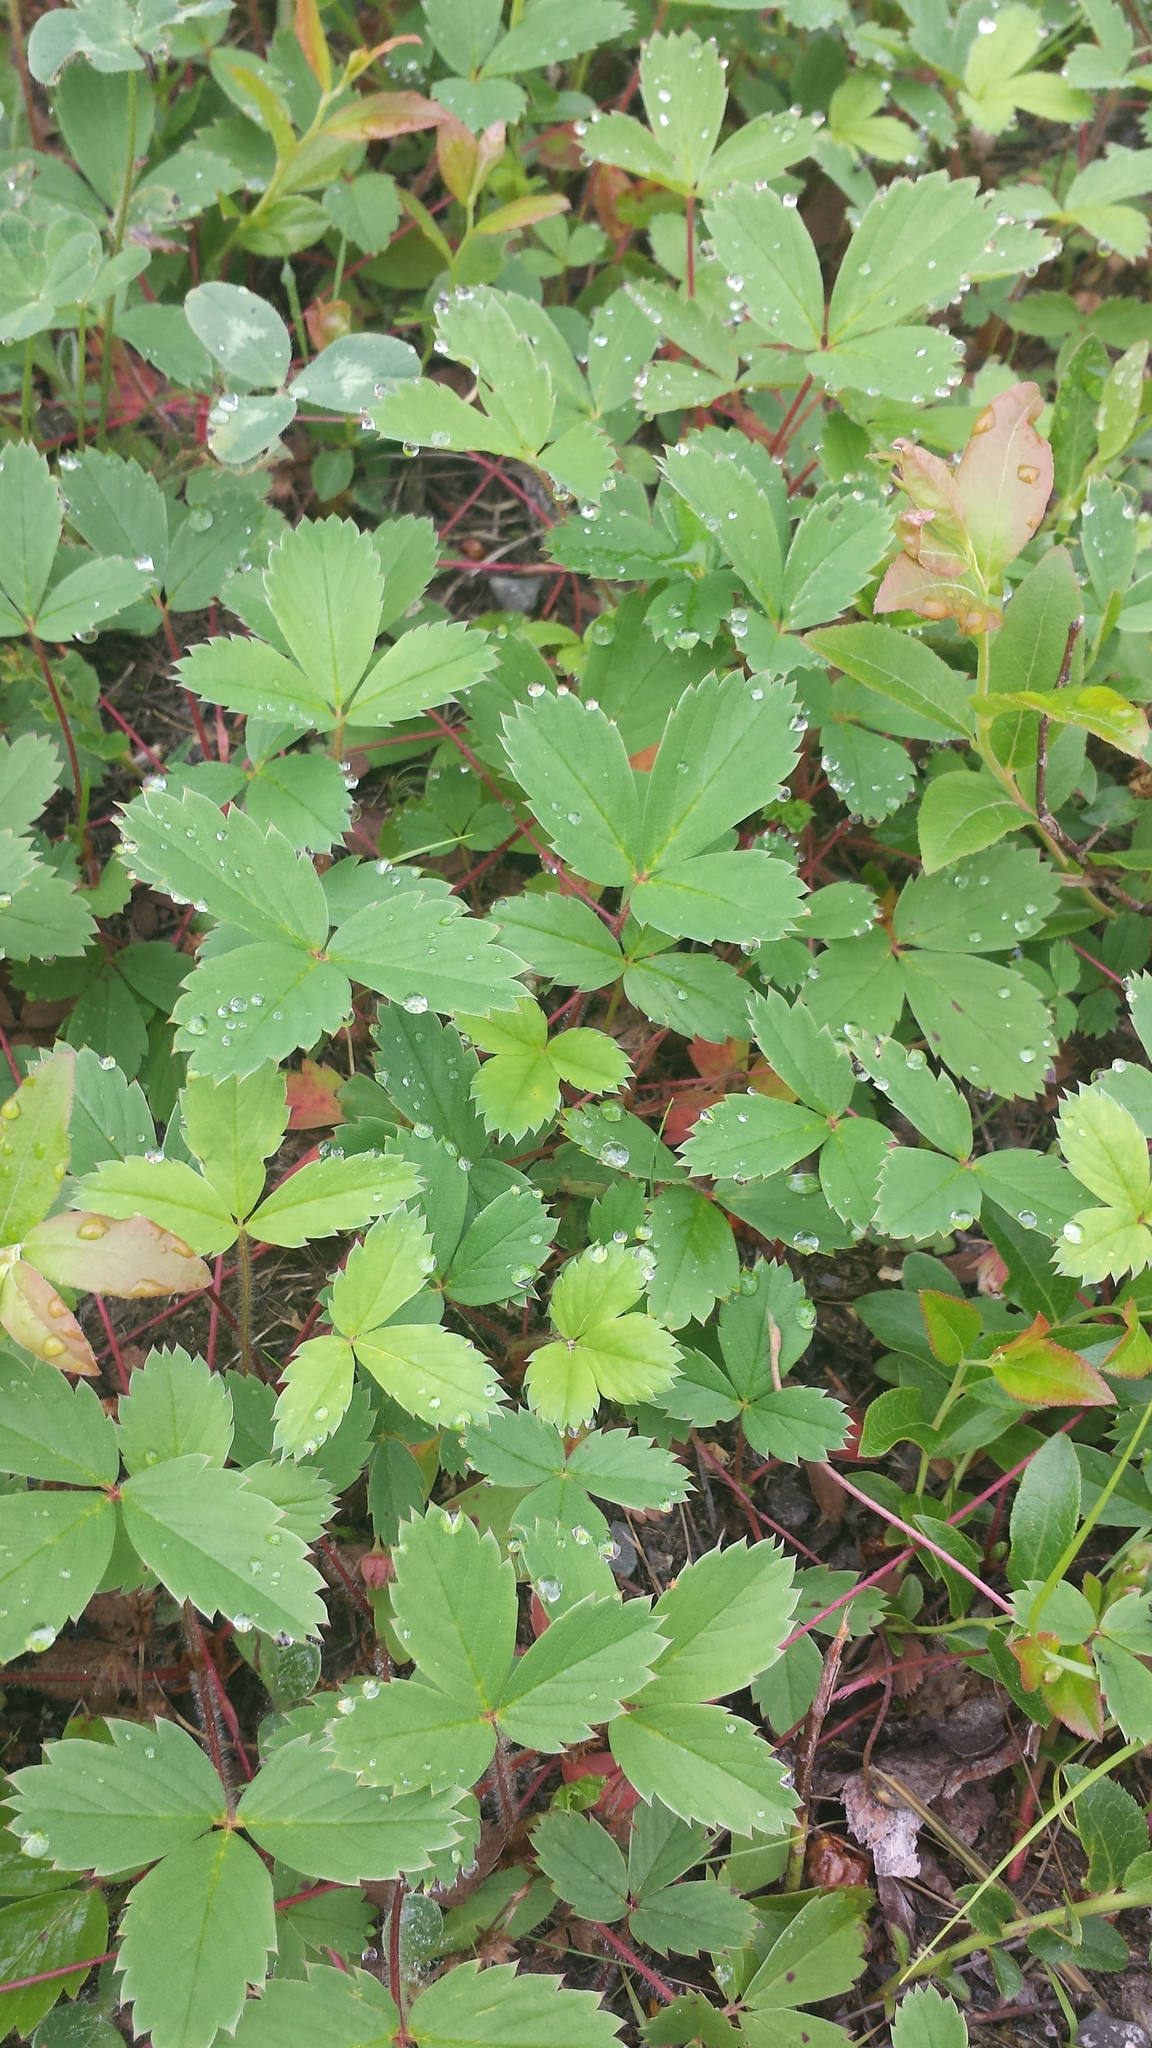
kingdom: Plantae
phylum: Tracheophyta
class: Magnoliopsida
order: Rosales
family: Rosaceae
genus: Fragaria
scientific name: Fragaria virginiana
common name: Thickleaved wild strawberry
